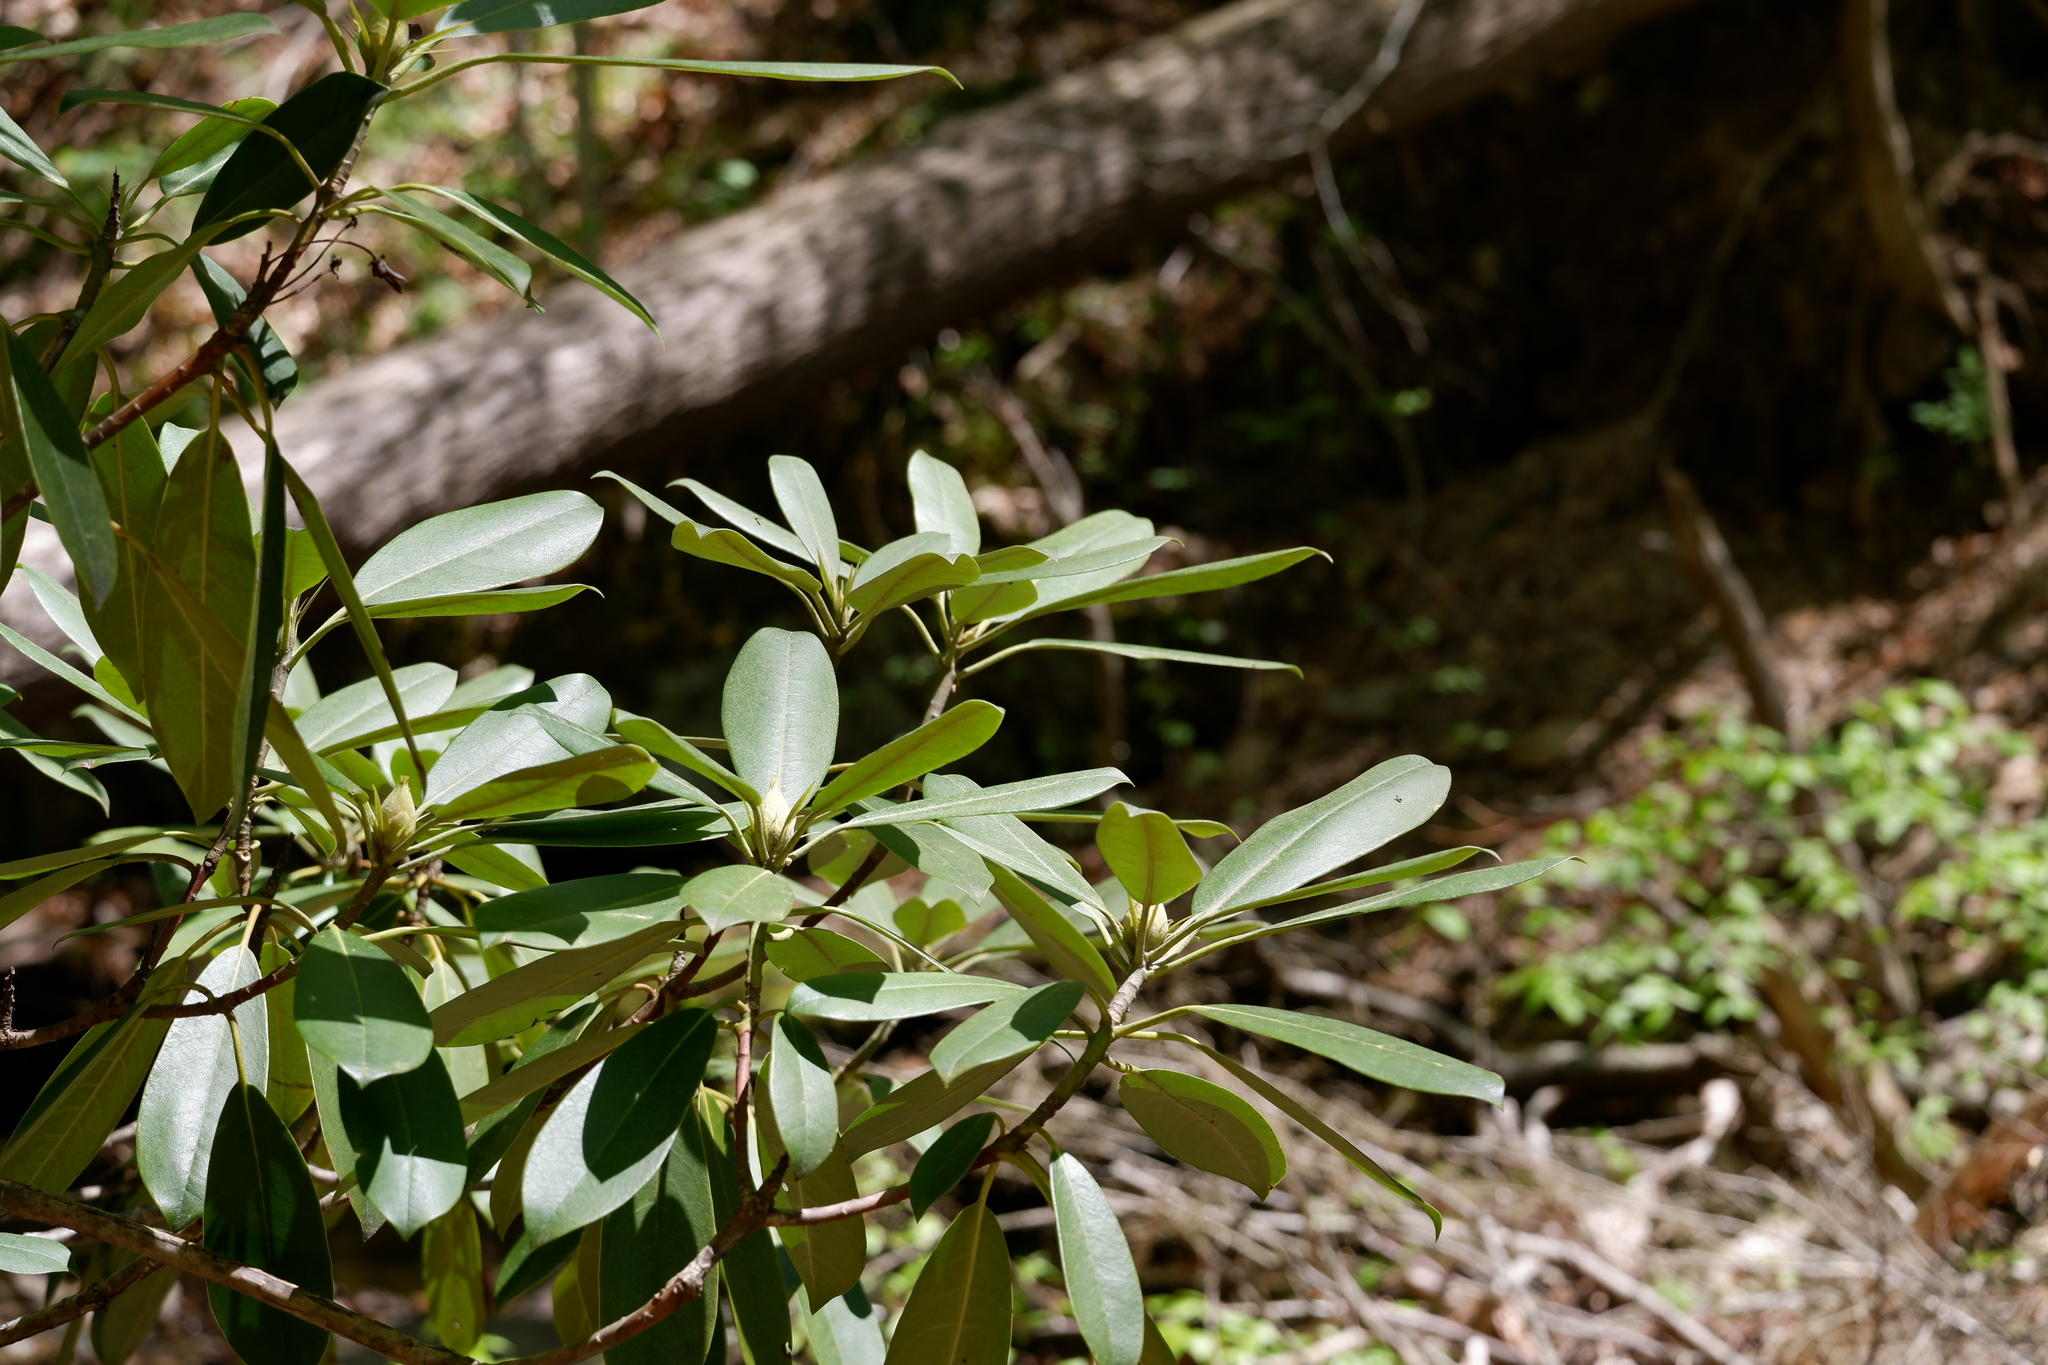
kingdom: Plantae
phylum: Tracheophyta
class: Magnoliopsida
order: Ericales
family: Ericaceae
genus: Rhododendron
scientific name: Rhododendron maximum
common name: Great rhododendron
